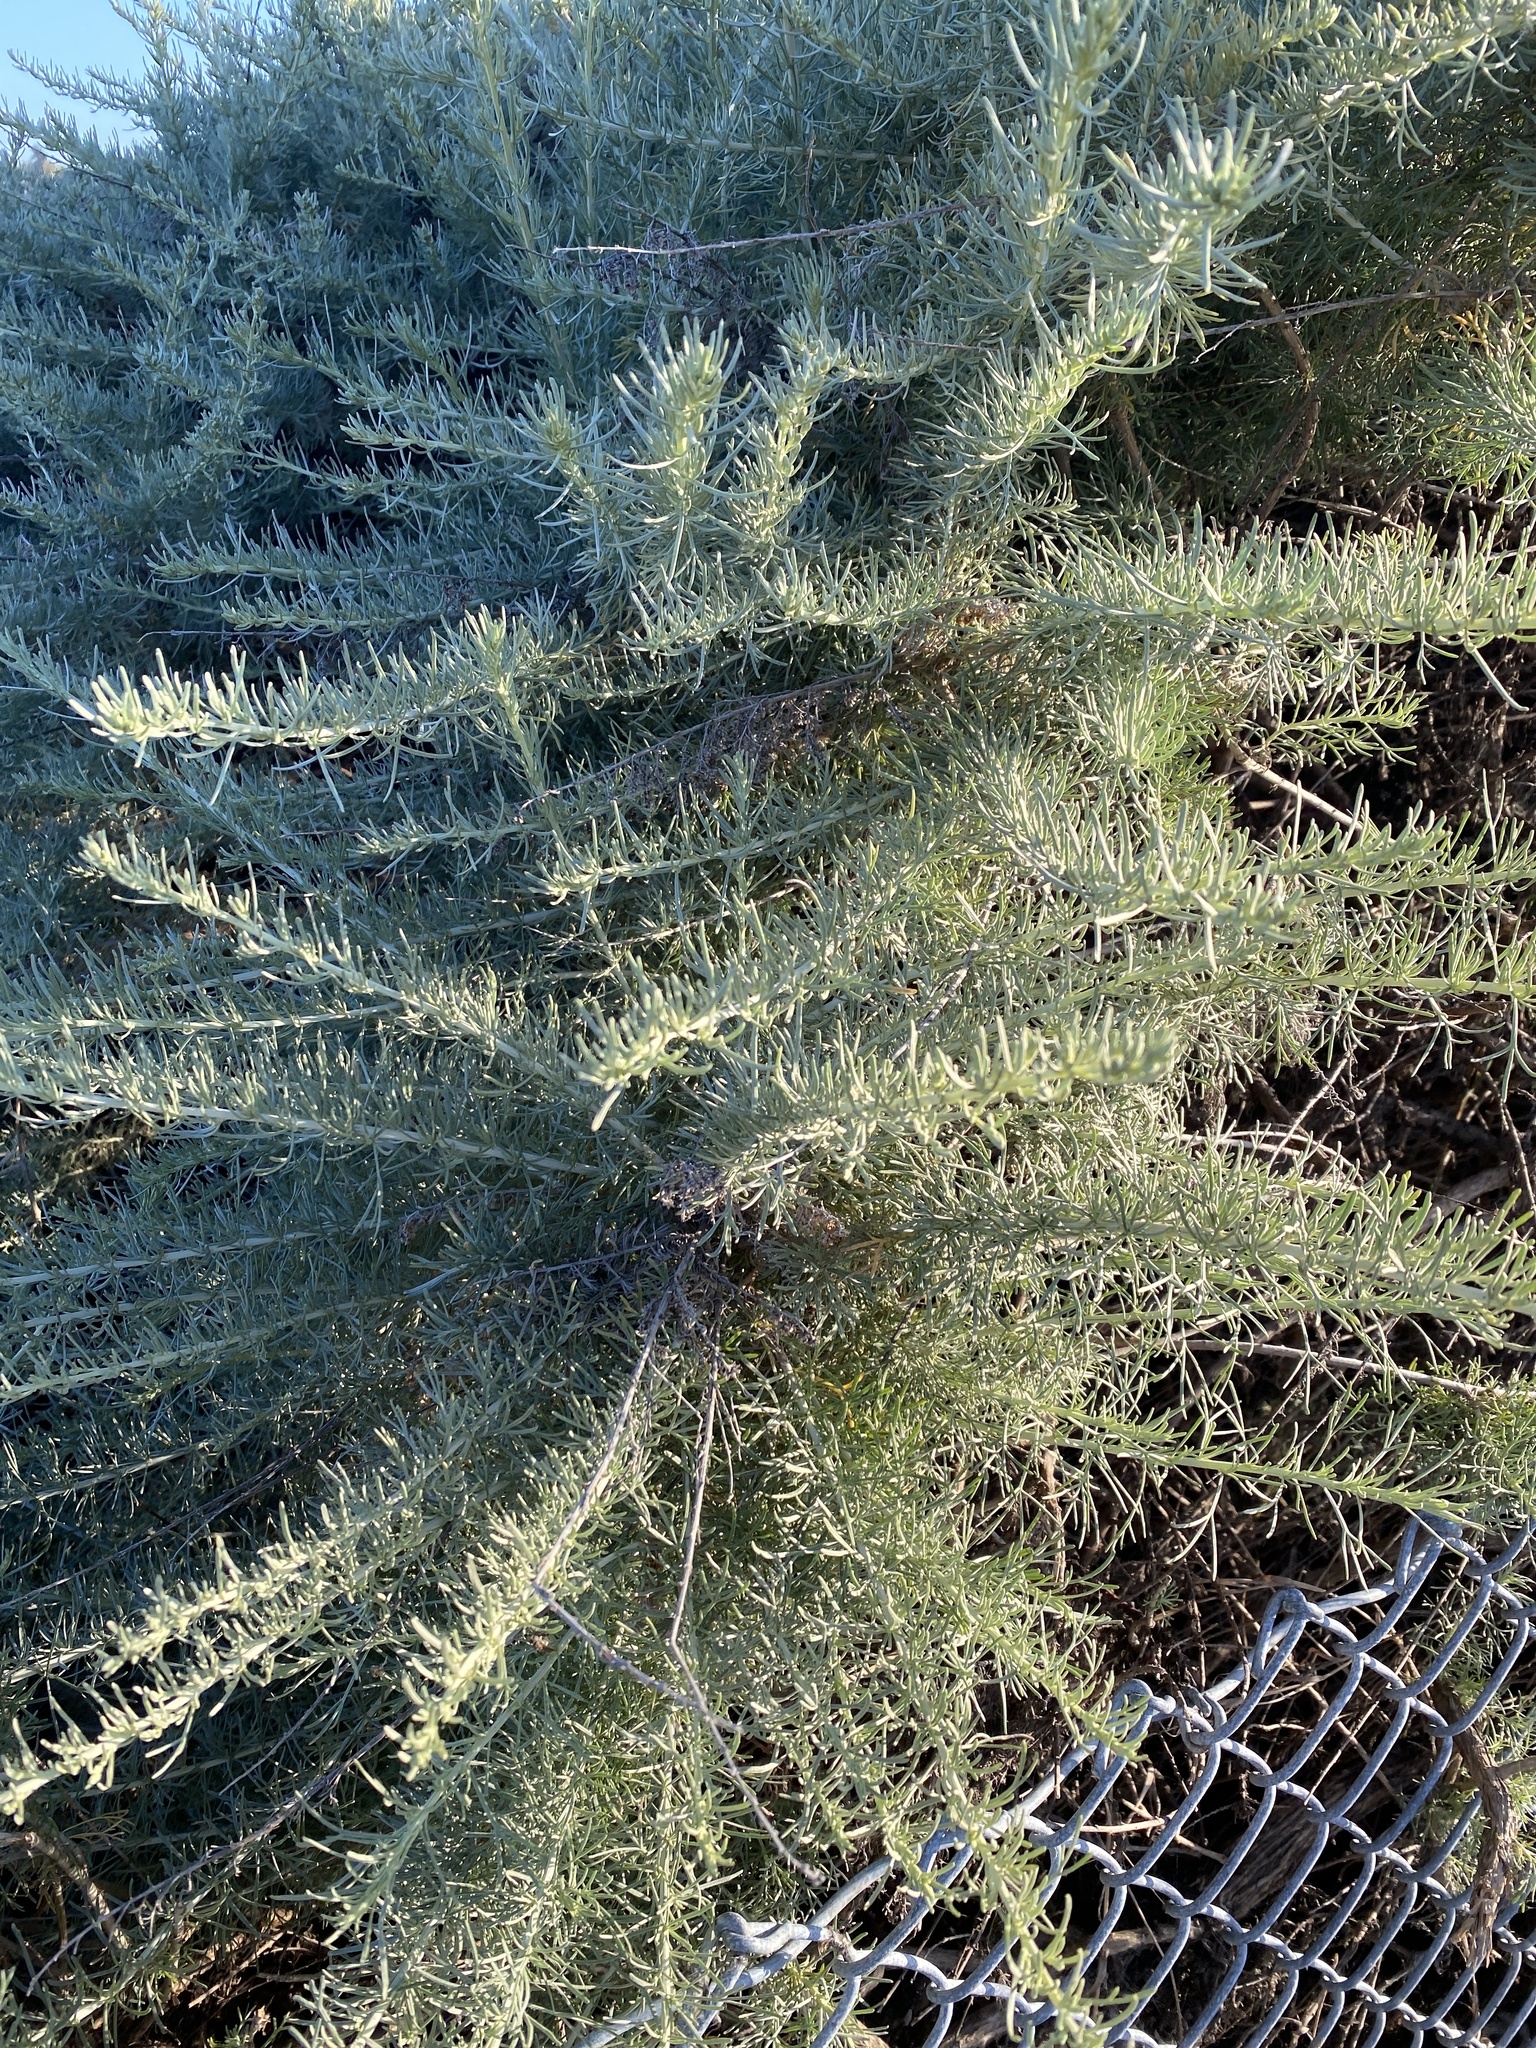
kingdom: Plantae
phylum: Tracheophyta
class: Magnoliopsida
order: Asterales
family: Asteraceae
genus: Artemisia
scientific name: Artemisia californica
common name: California sagebrush
